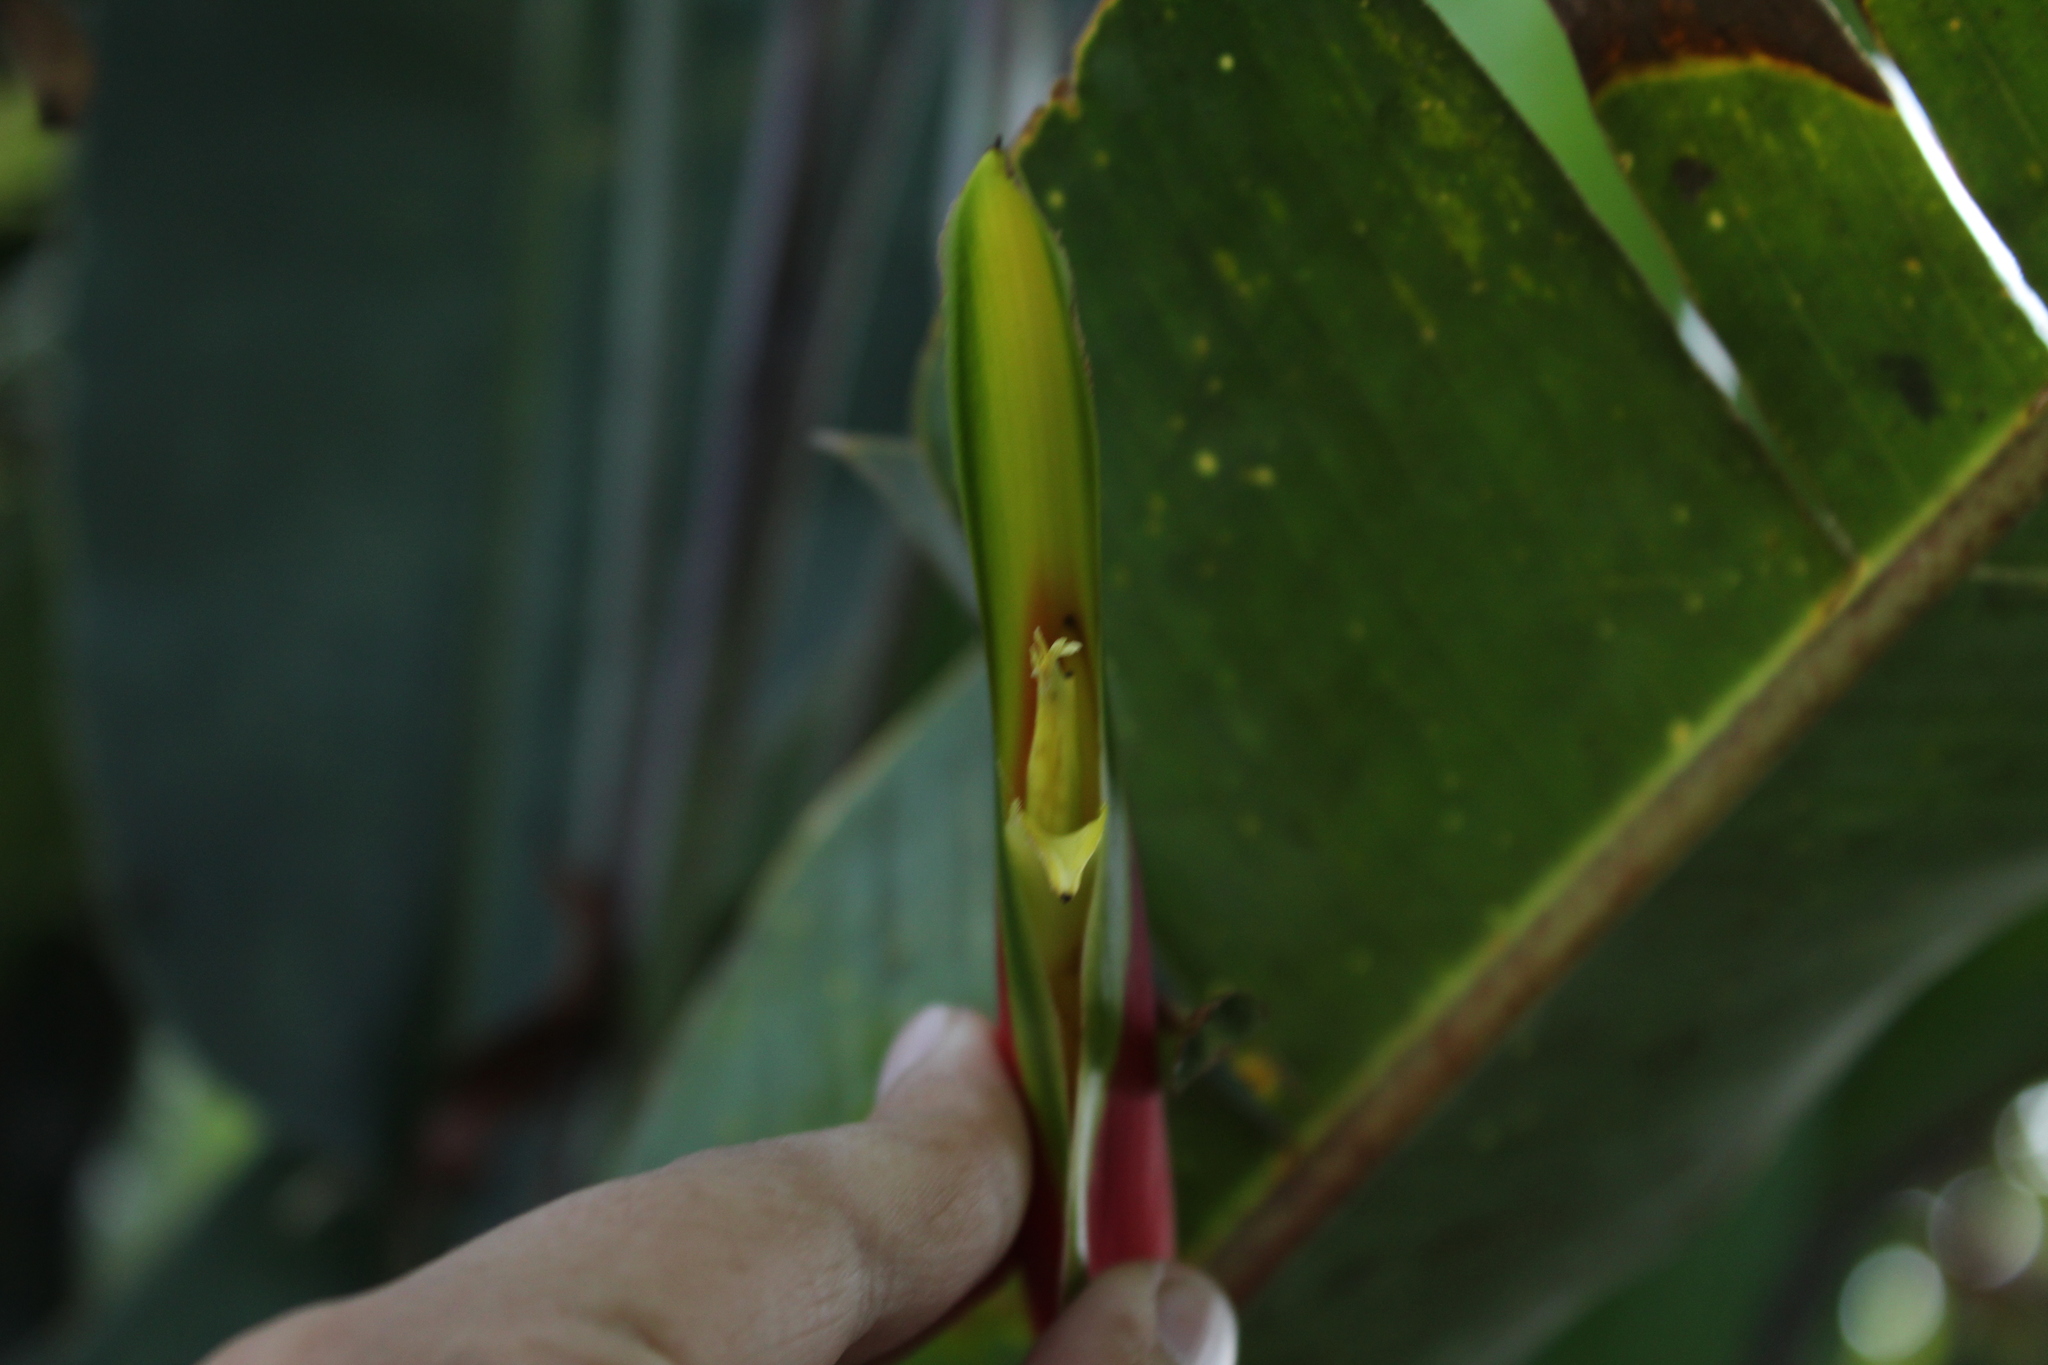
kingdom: Plantae
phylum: Tracheophyta
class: Liliopsida
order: Zingiberales
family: Heliconiaceae
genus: Heliconia
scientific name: Heliconia rostrata
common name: False bird of paradise
